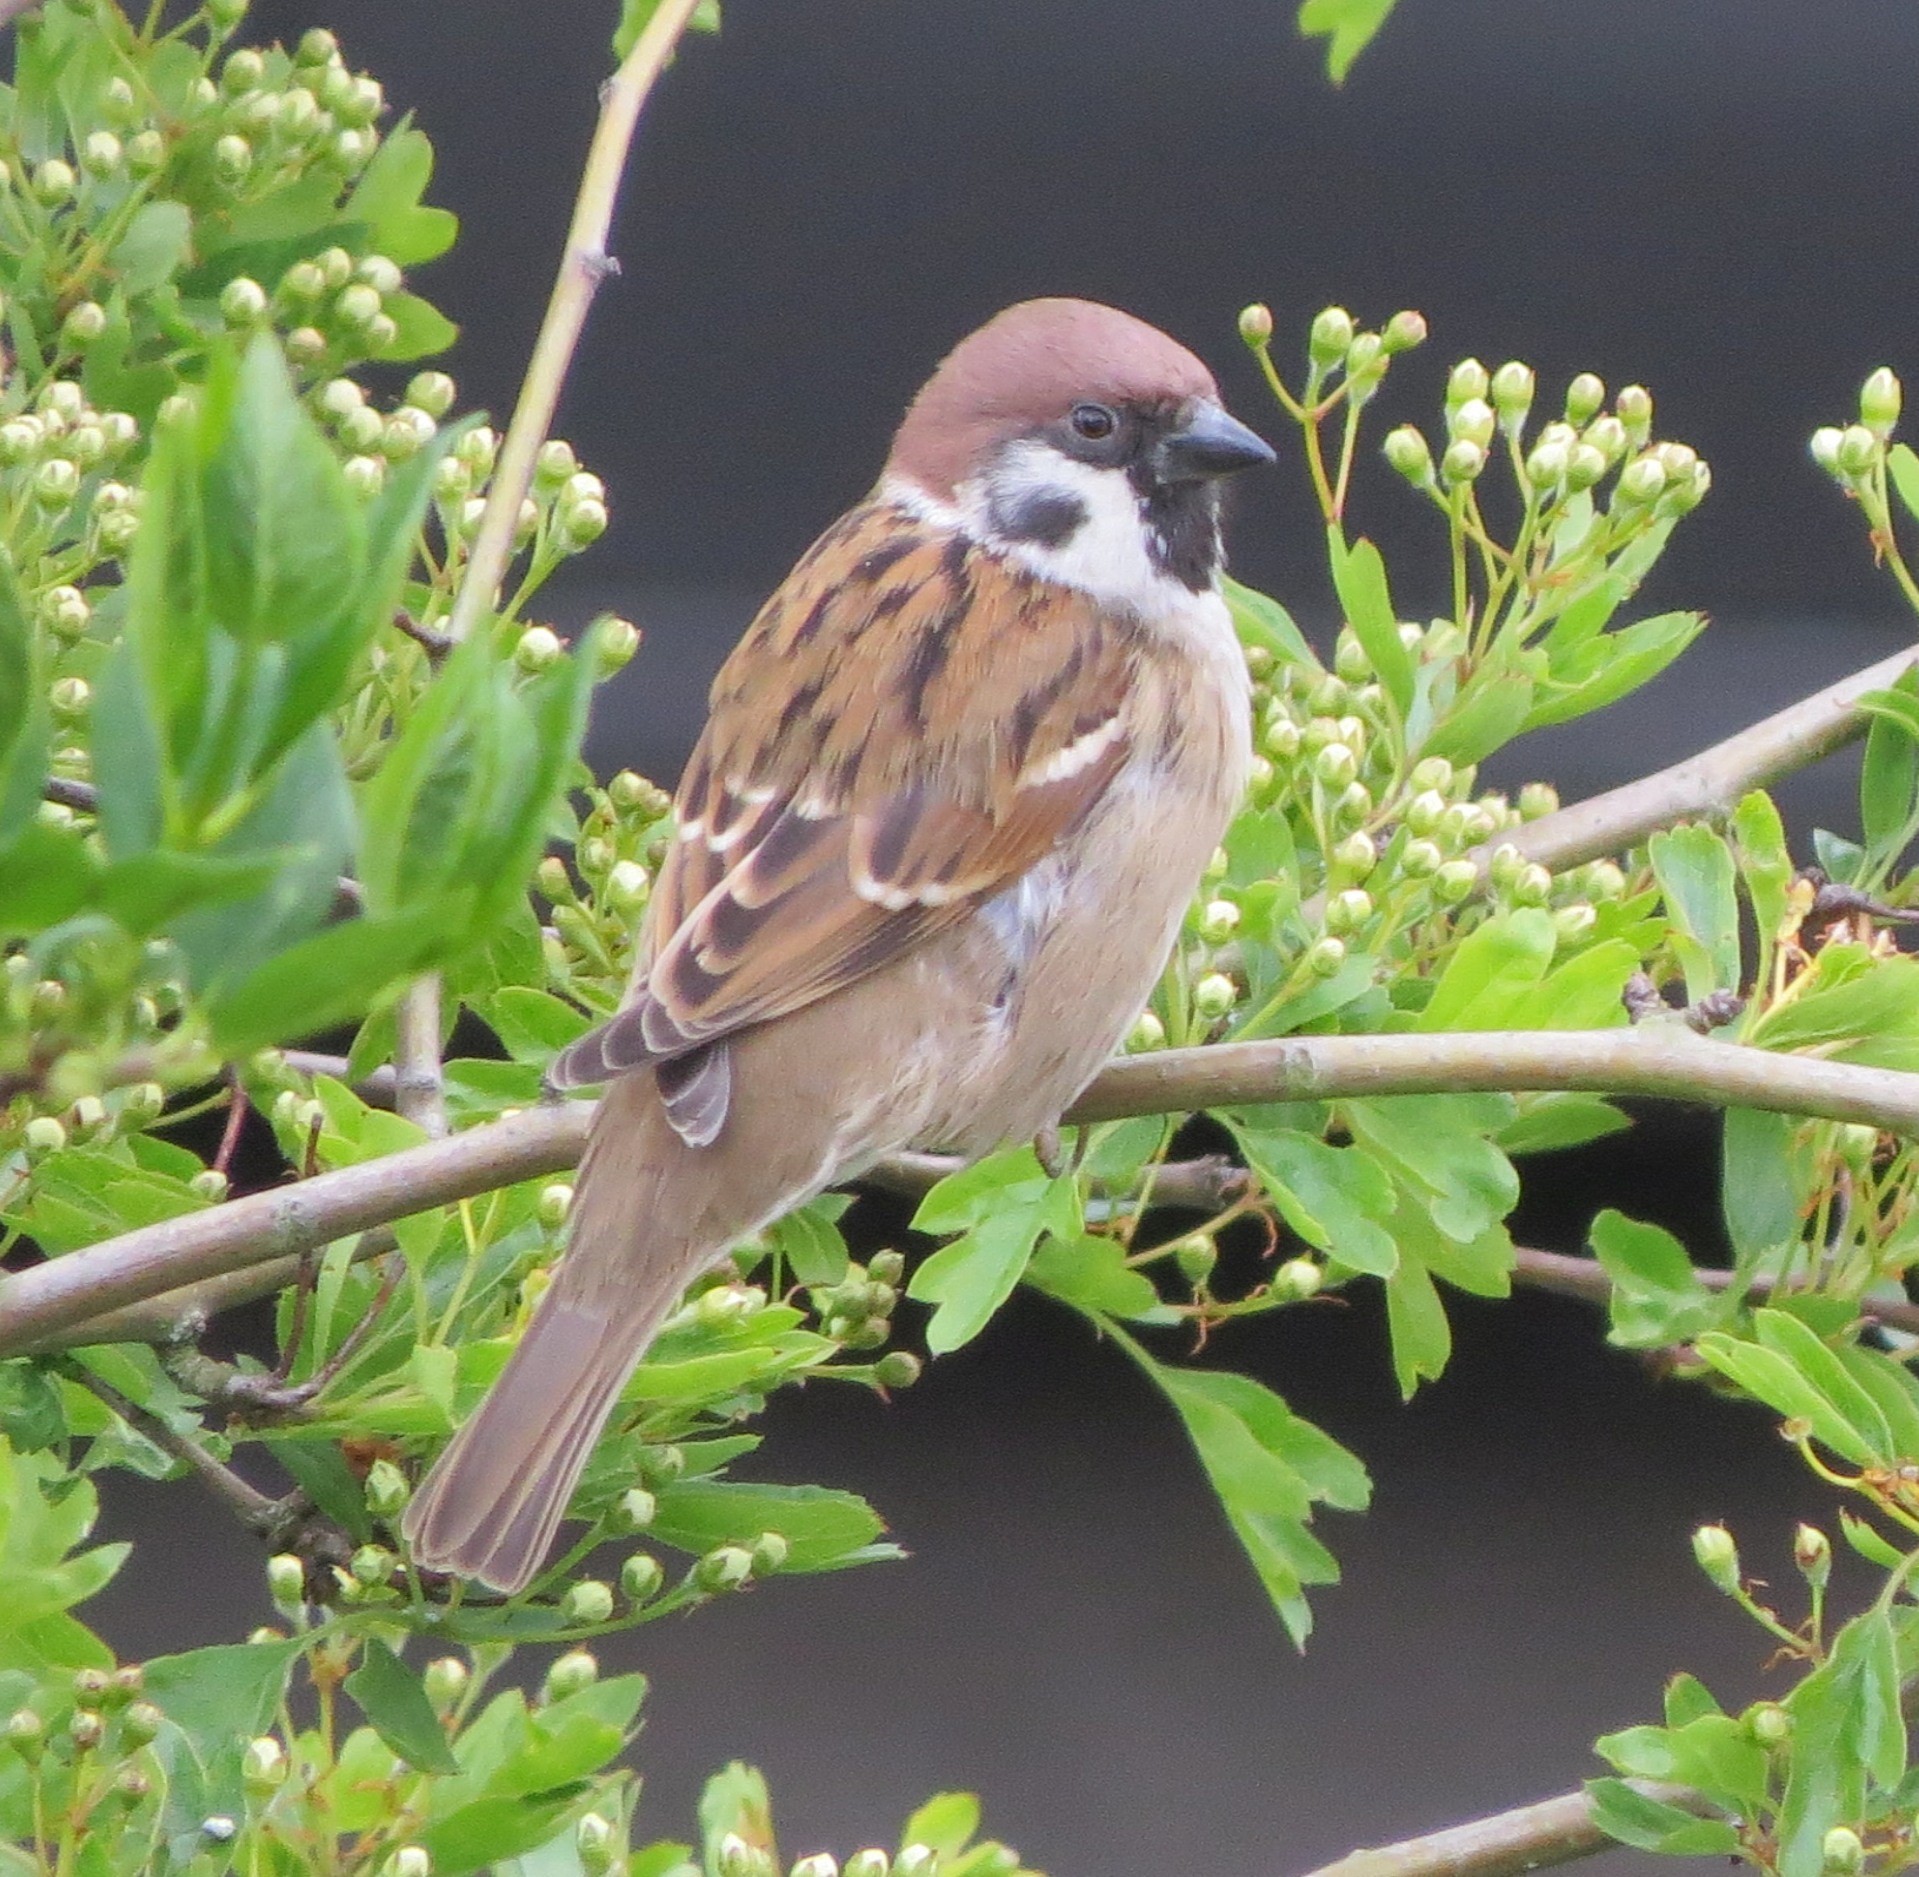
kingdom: Animalia
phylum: Chordata
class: Aves
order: Passeriformes
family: Passeridae
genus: Passer
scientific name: Passer montanus
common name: Eurasian tree sparrow
